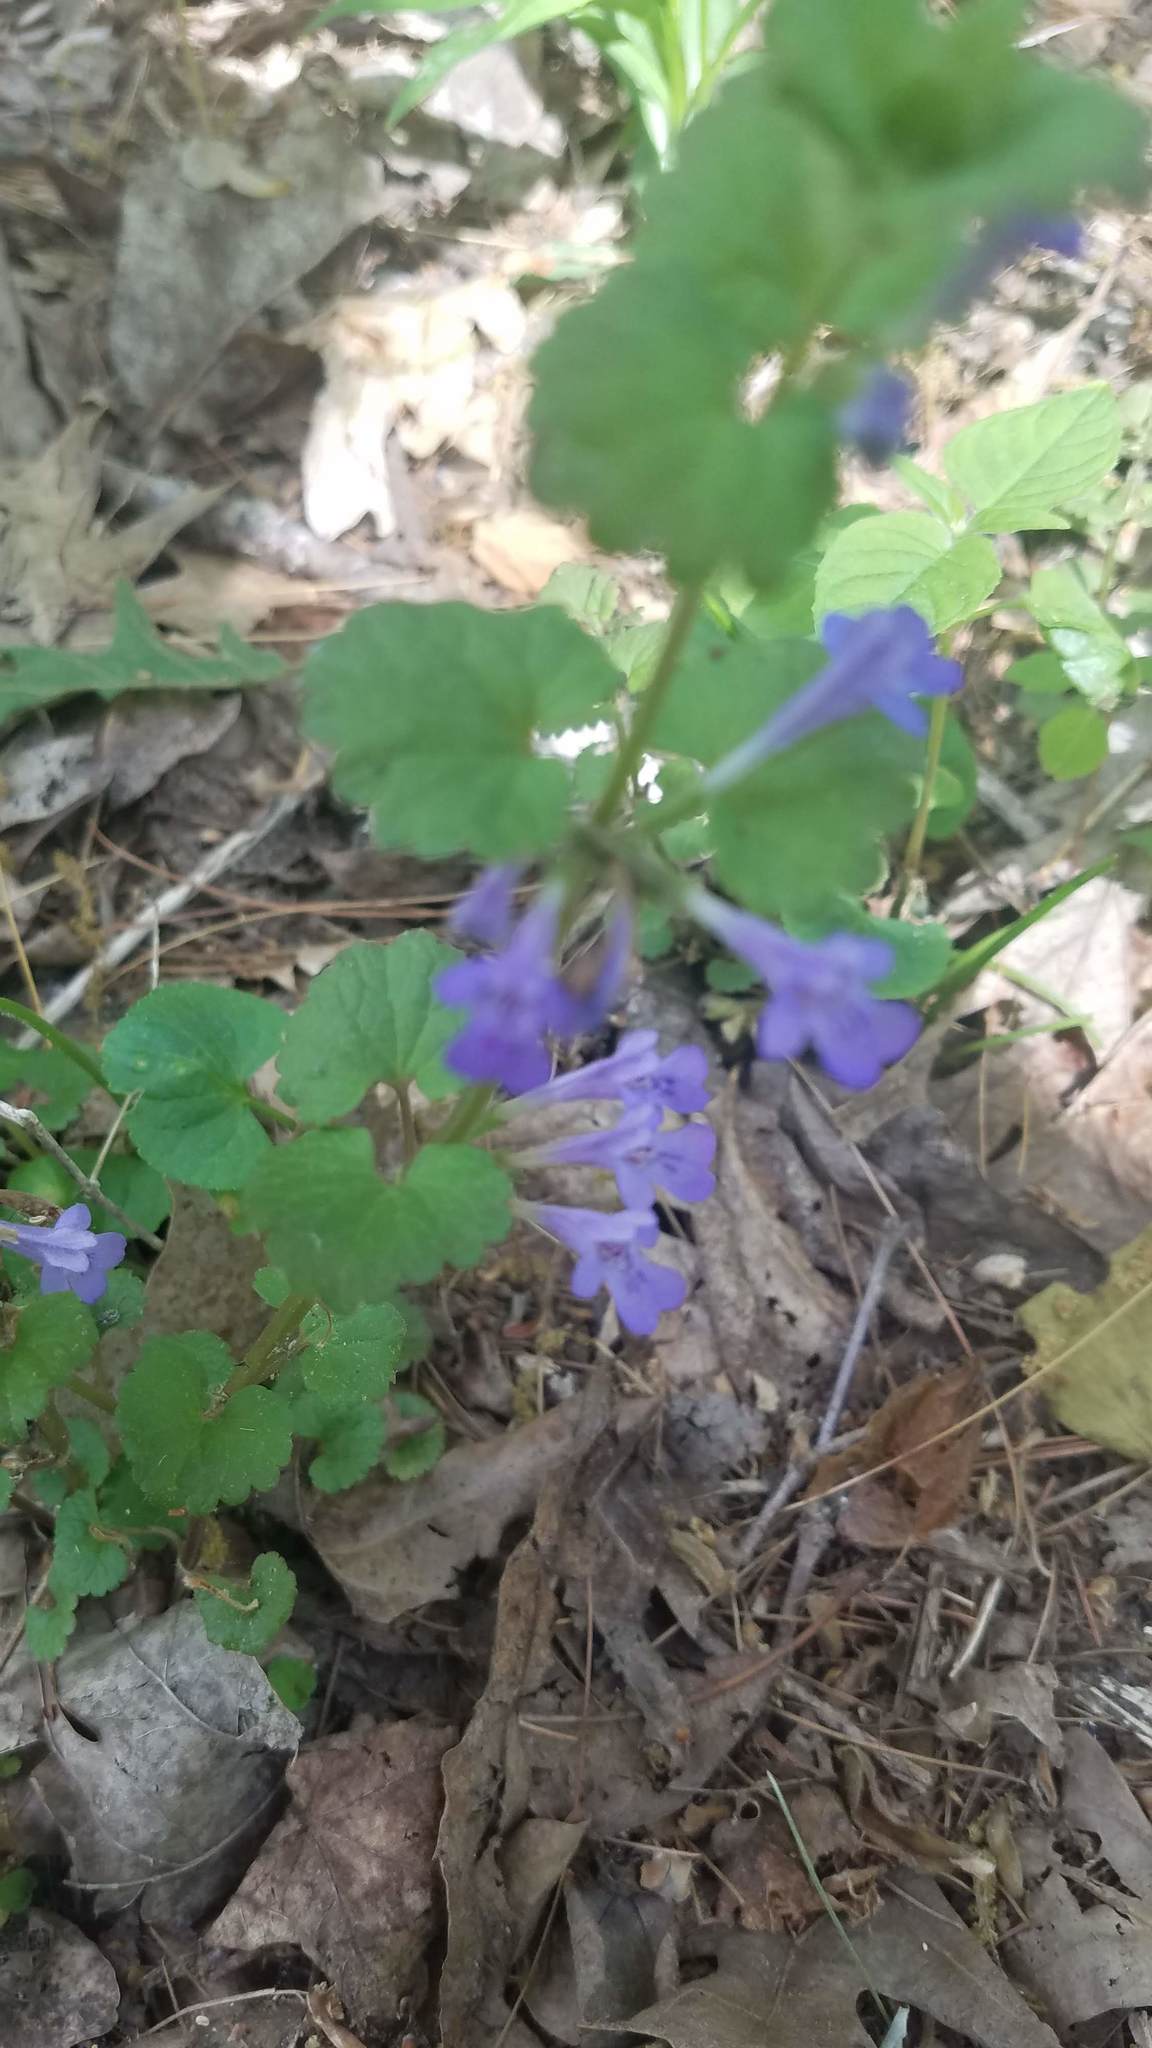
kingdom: Plantae
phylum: Tracheophyta
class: Magnoliopsida
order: Lamiales
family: Lamiaceae
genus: Glechoma
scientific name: Glechoma hederacea
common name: Ground ivy
